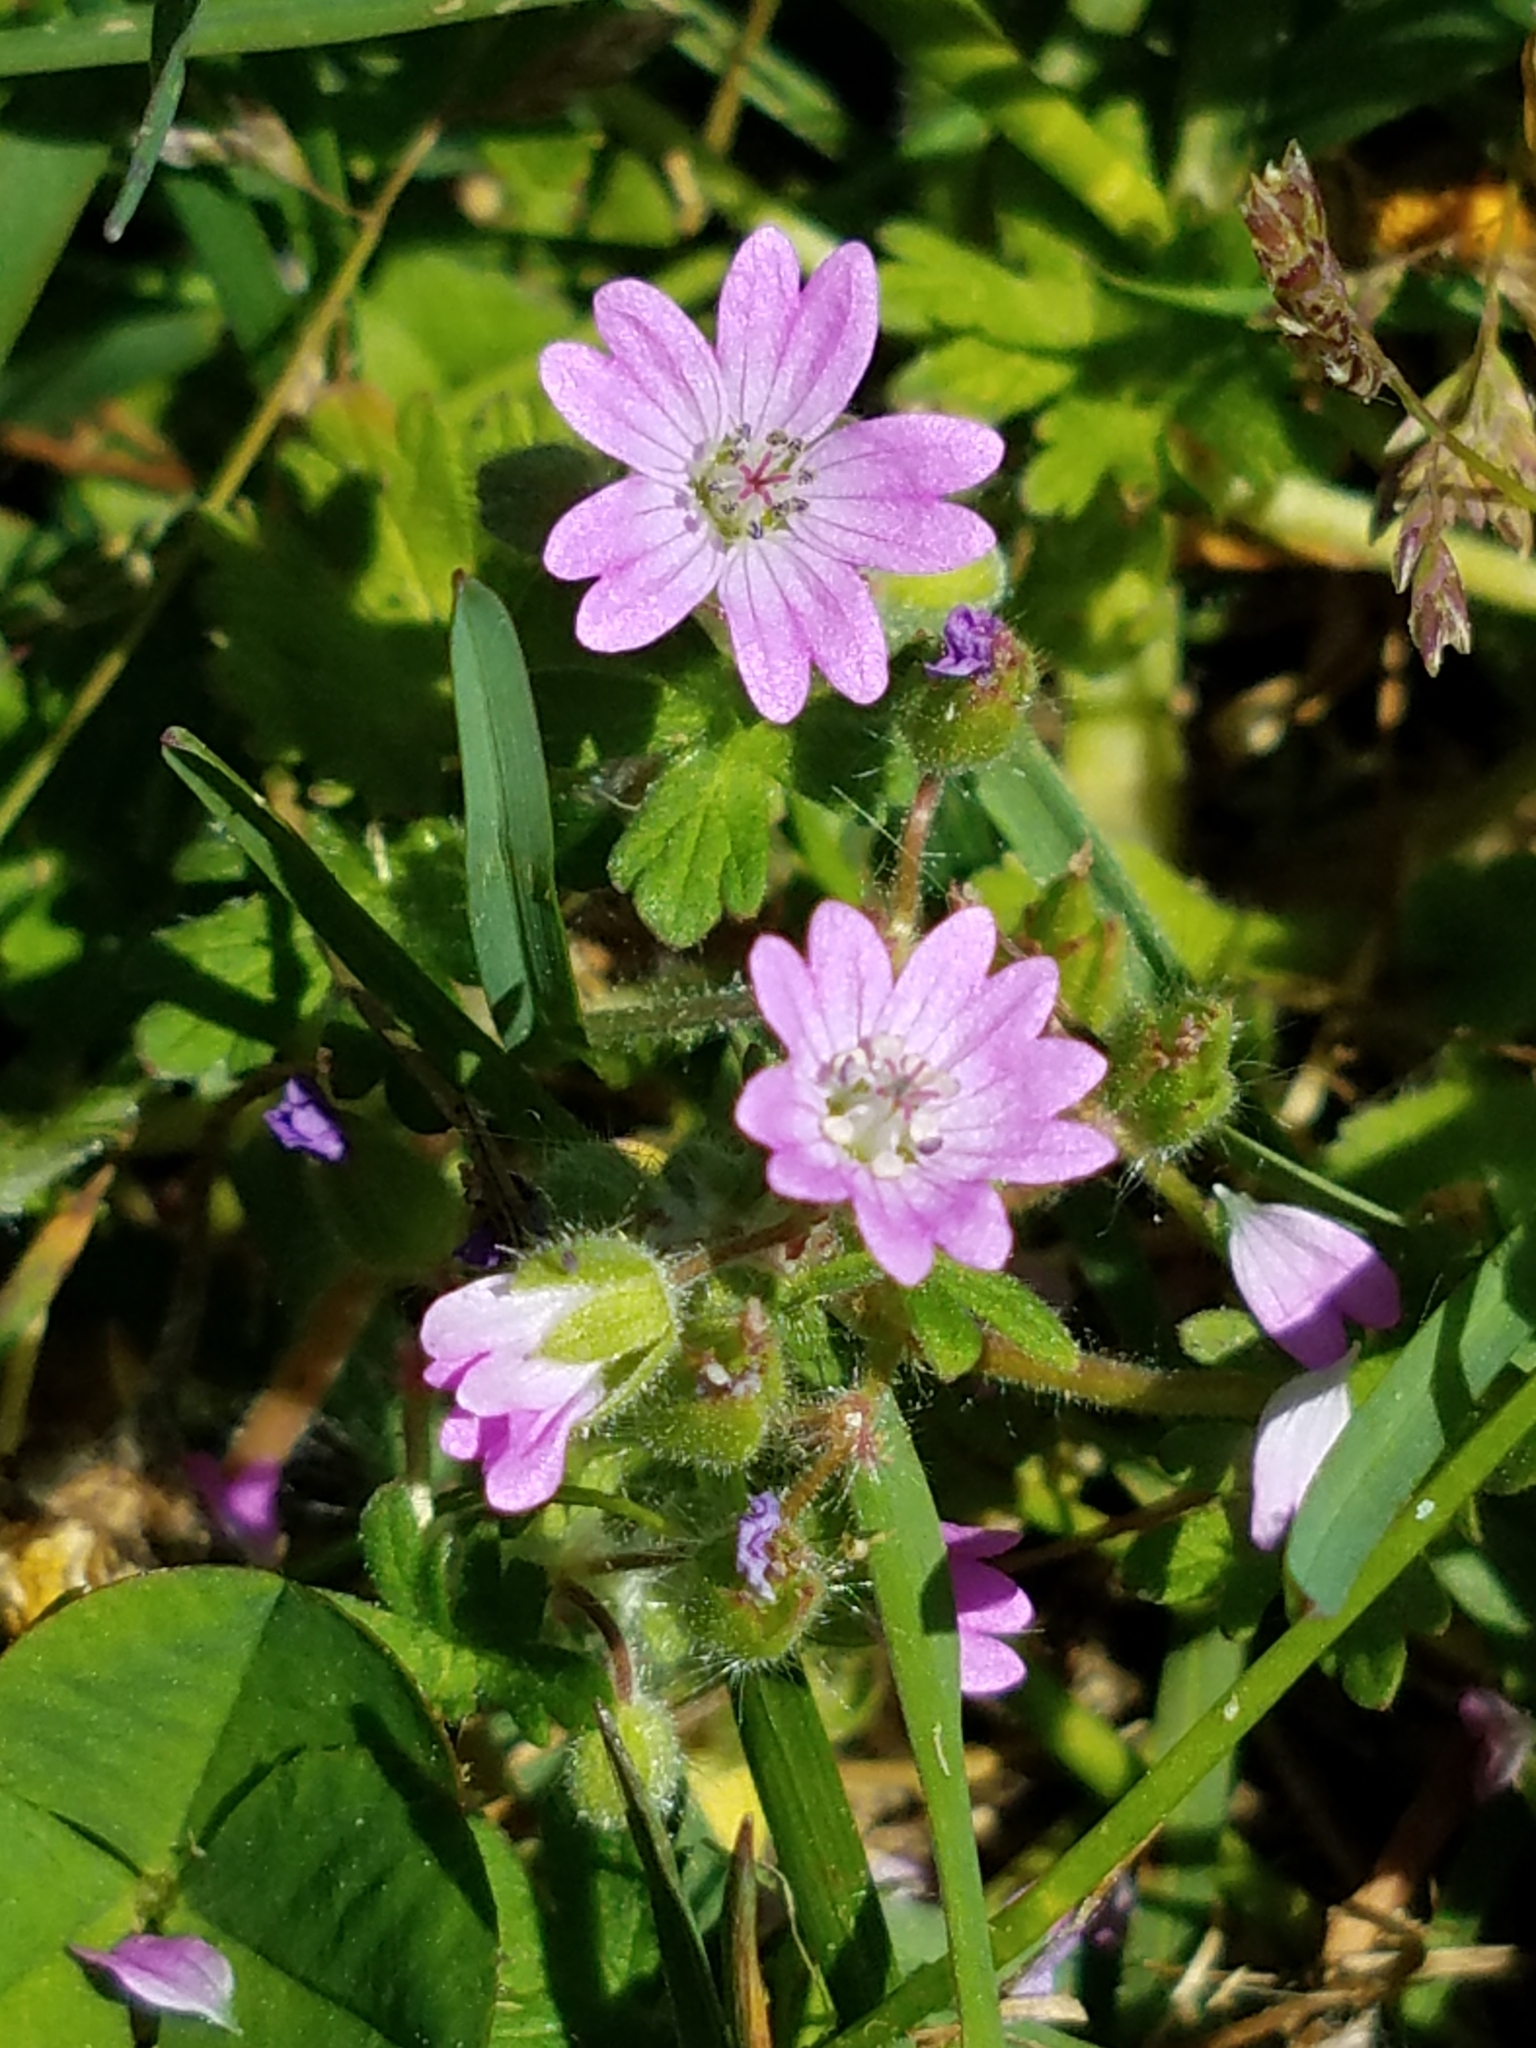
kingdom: Plantae
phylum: Tracheophyta
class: Magnoliopsida
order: Geraniales
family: Geraniaceae
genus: Geranium
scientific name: Geranium molle
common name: Dove's-foot crane's-bill
